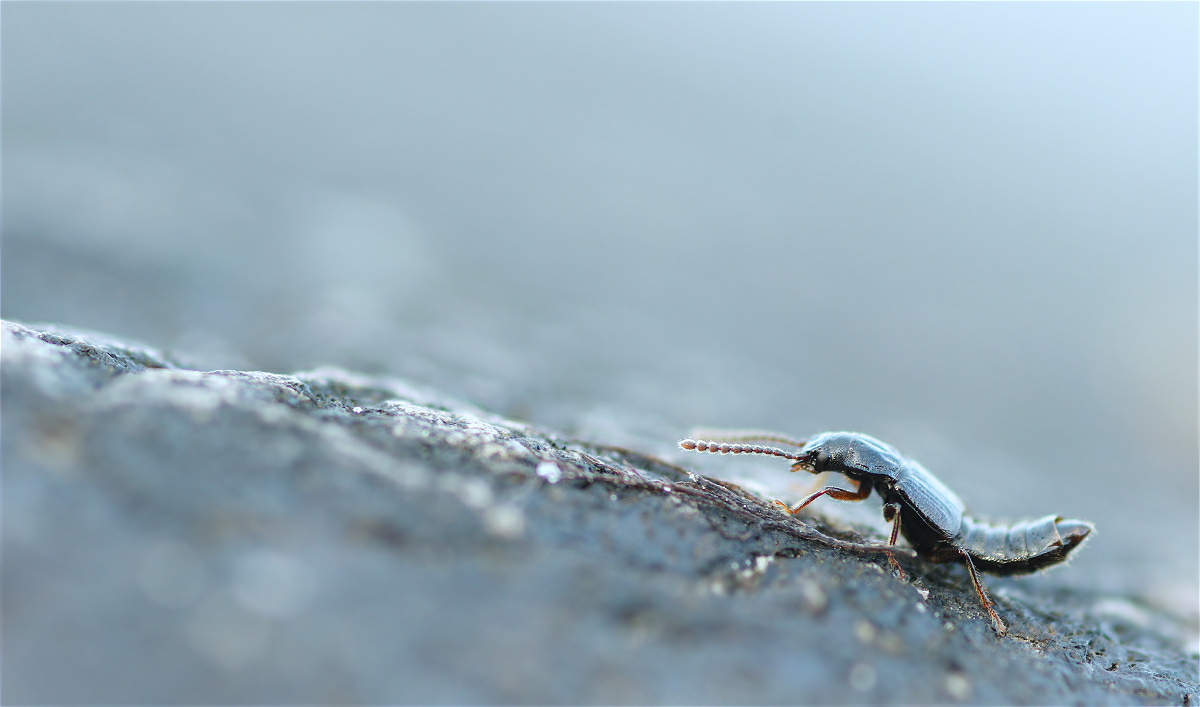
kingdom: Animalia
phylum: Arthropoda
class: Insecta
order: Coleoptera
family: Staphylinidae
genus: Coprophilus
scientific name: Coprophilus striatulus
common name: Rove beetle
